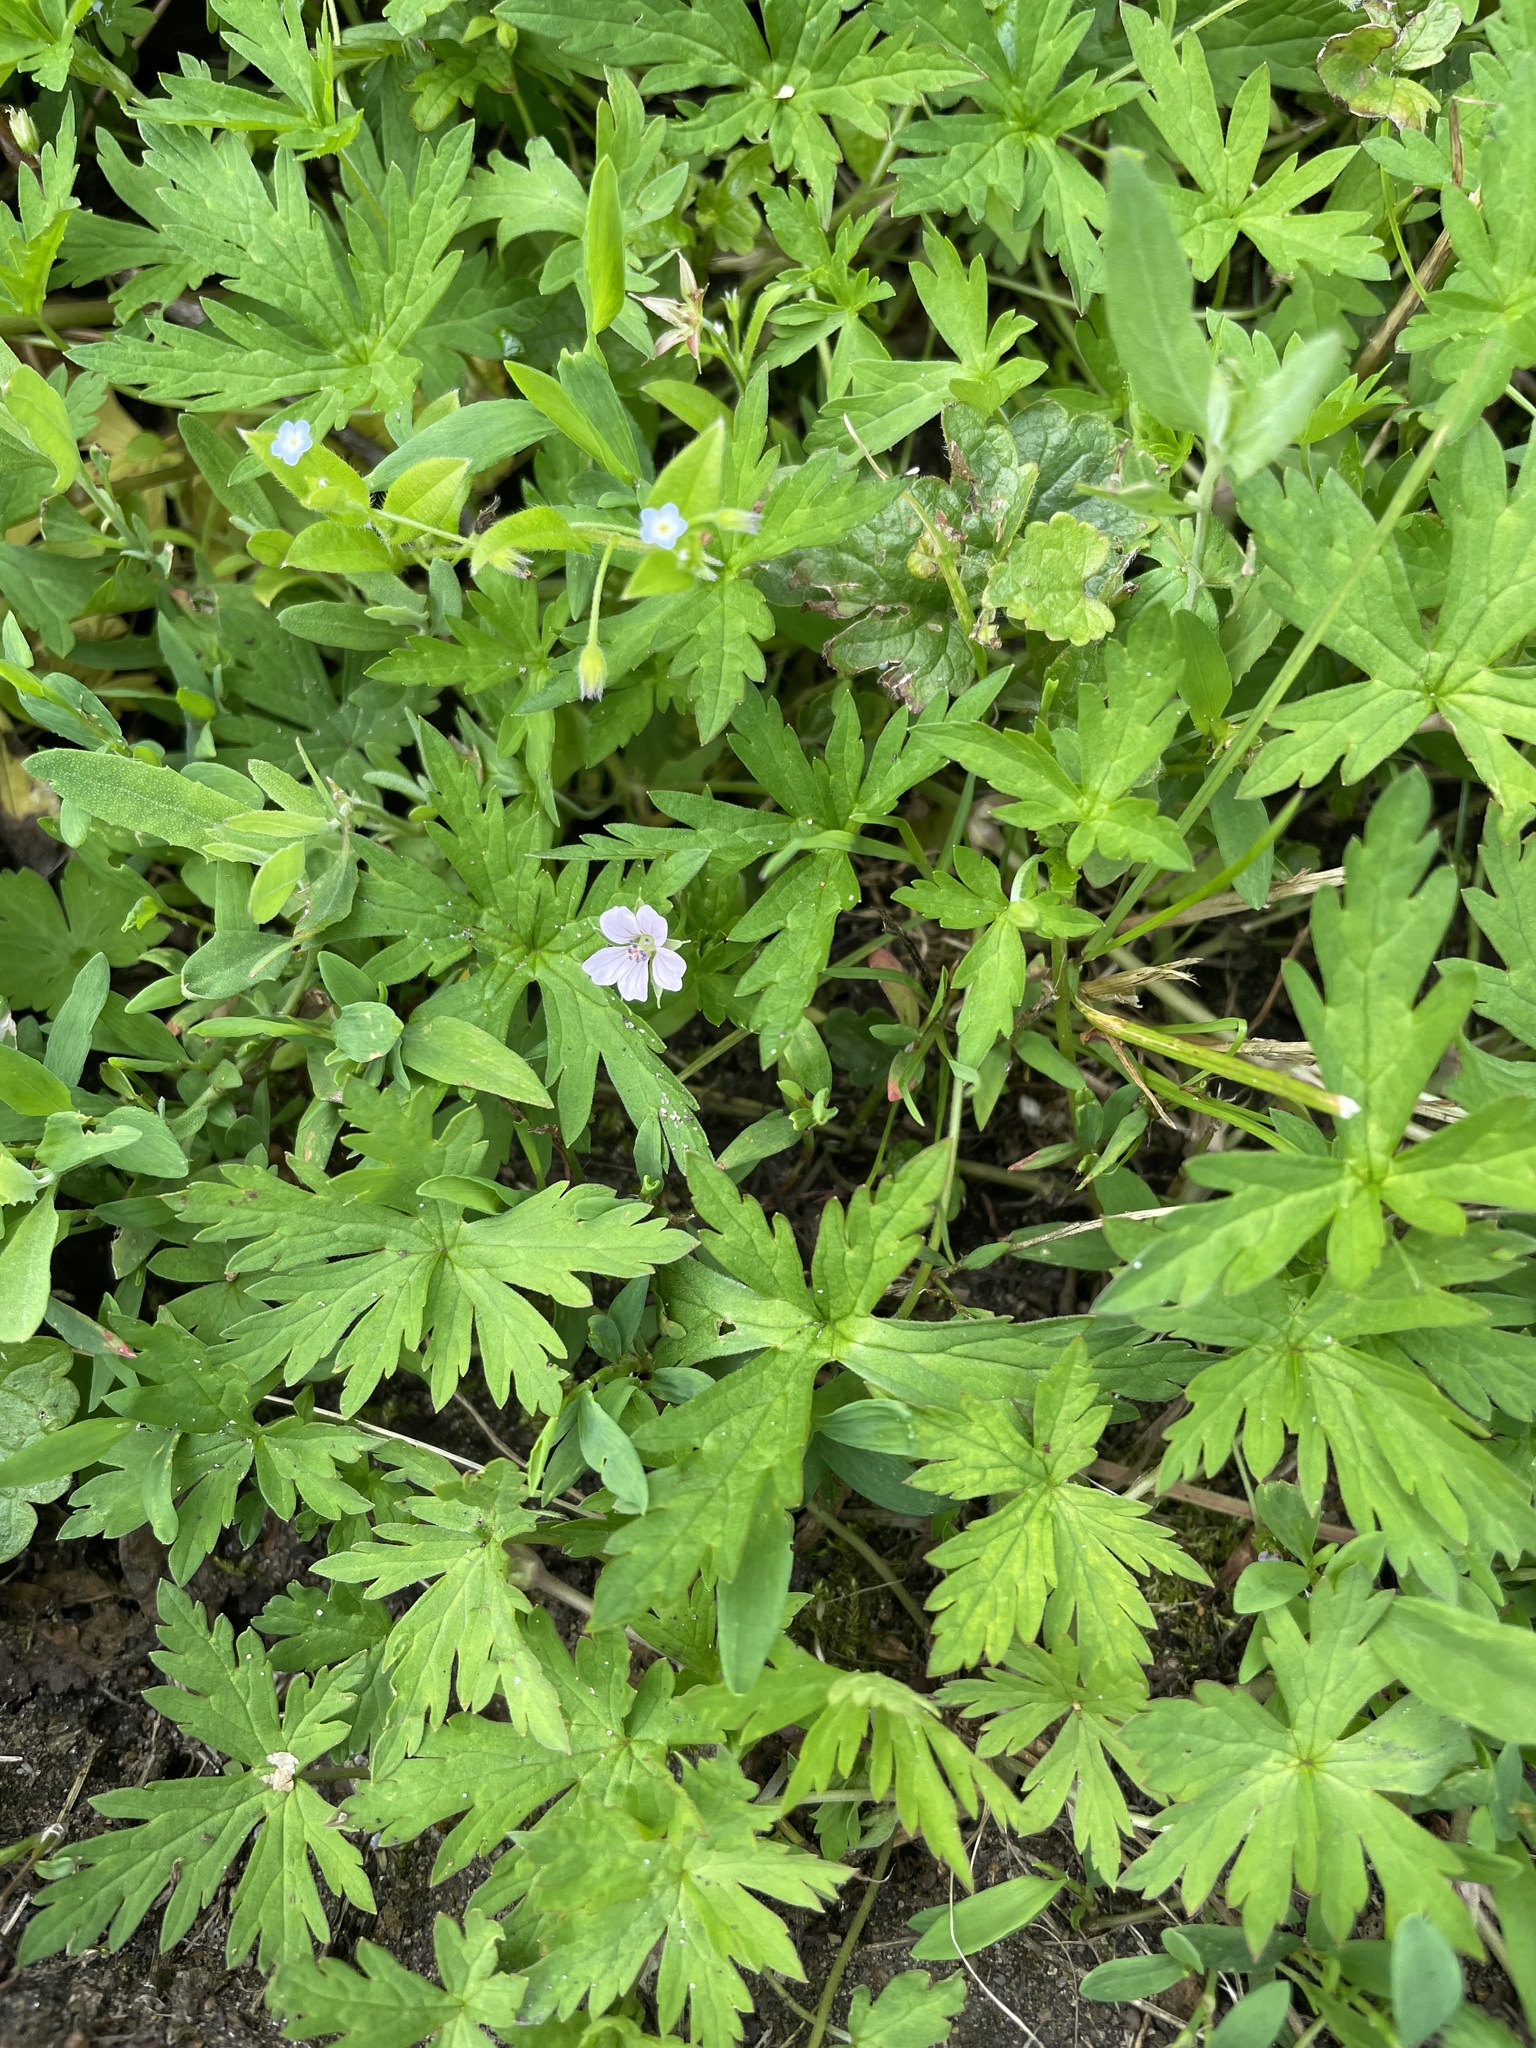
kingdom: Plantae
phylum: Tracheophyta
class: Magnoliopsida
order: Geraniales
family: Geraniaceae
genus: Geranium
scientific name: Geranium sibiricum
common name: Siberian crane's-bill
